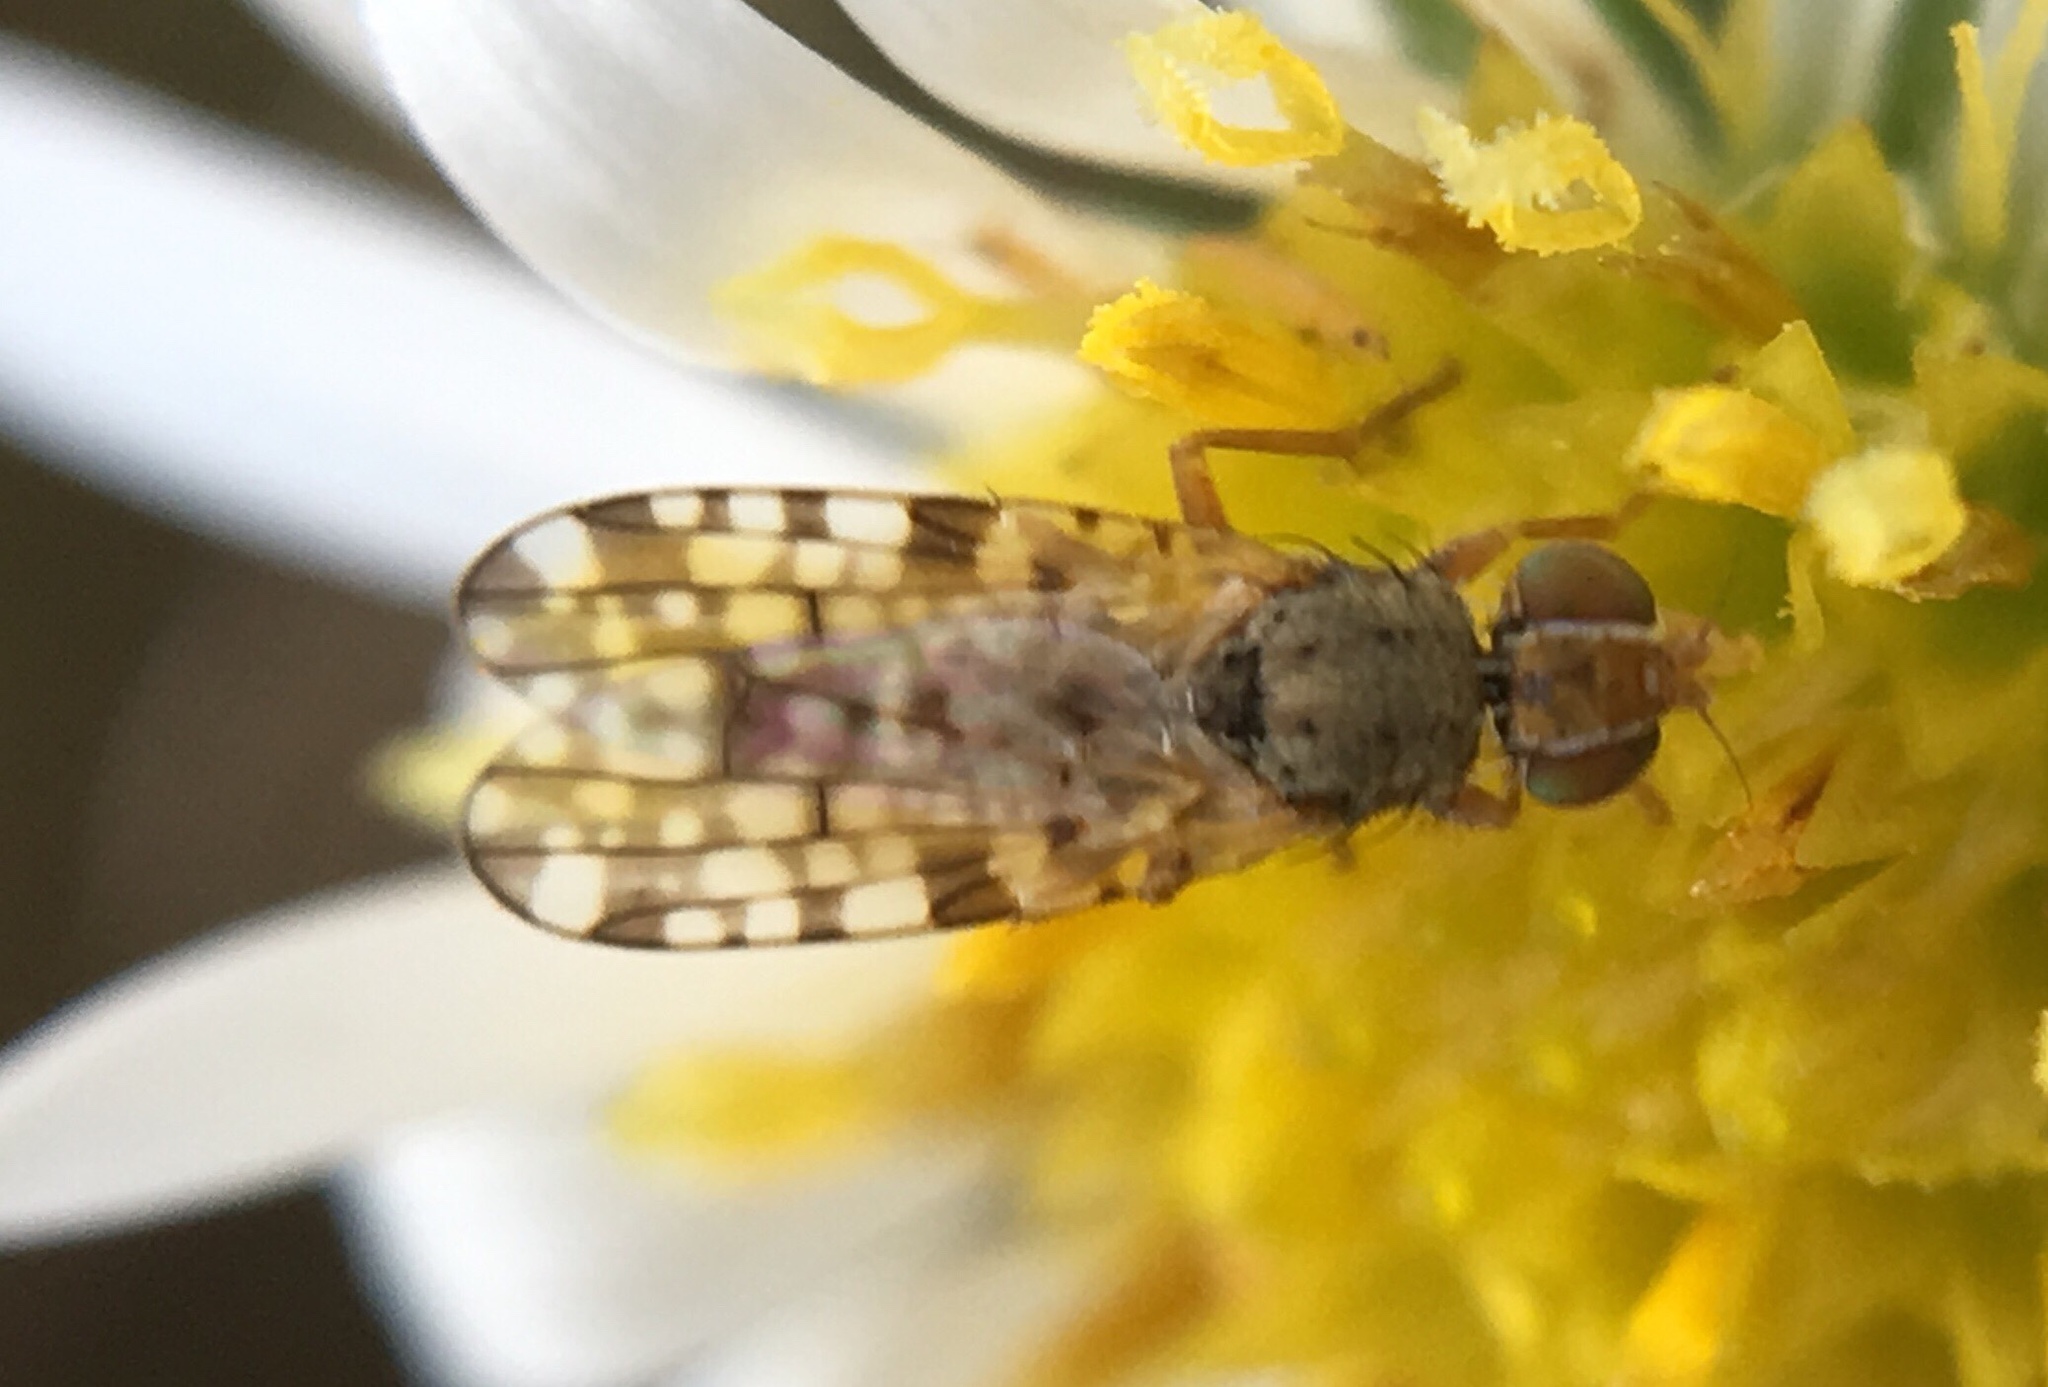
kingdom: Animalia
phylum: Arthropoda
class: Insecta
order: Diptera
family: Tephritidae
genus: Dioxyna
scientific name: Dioxyna picciola
